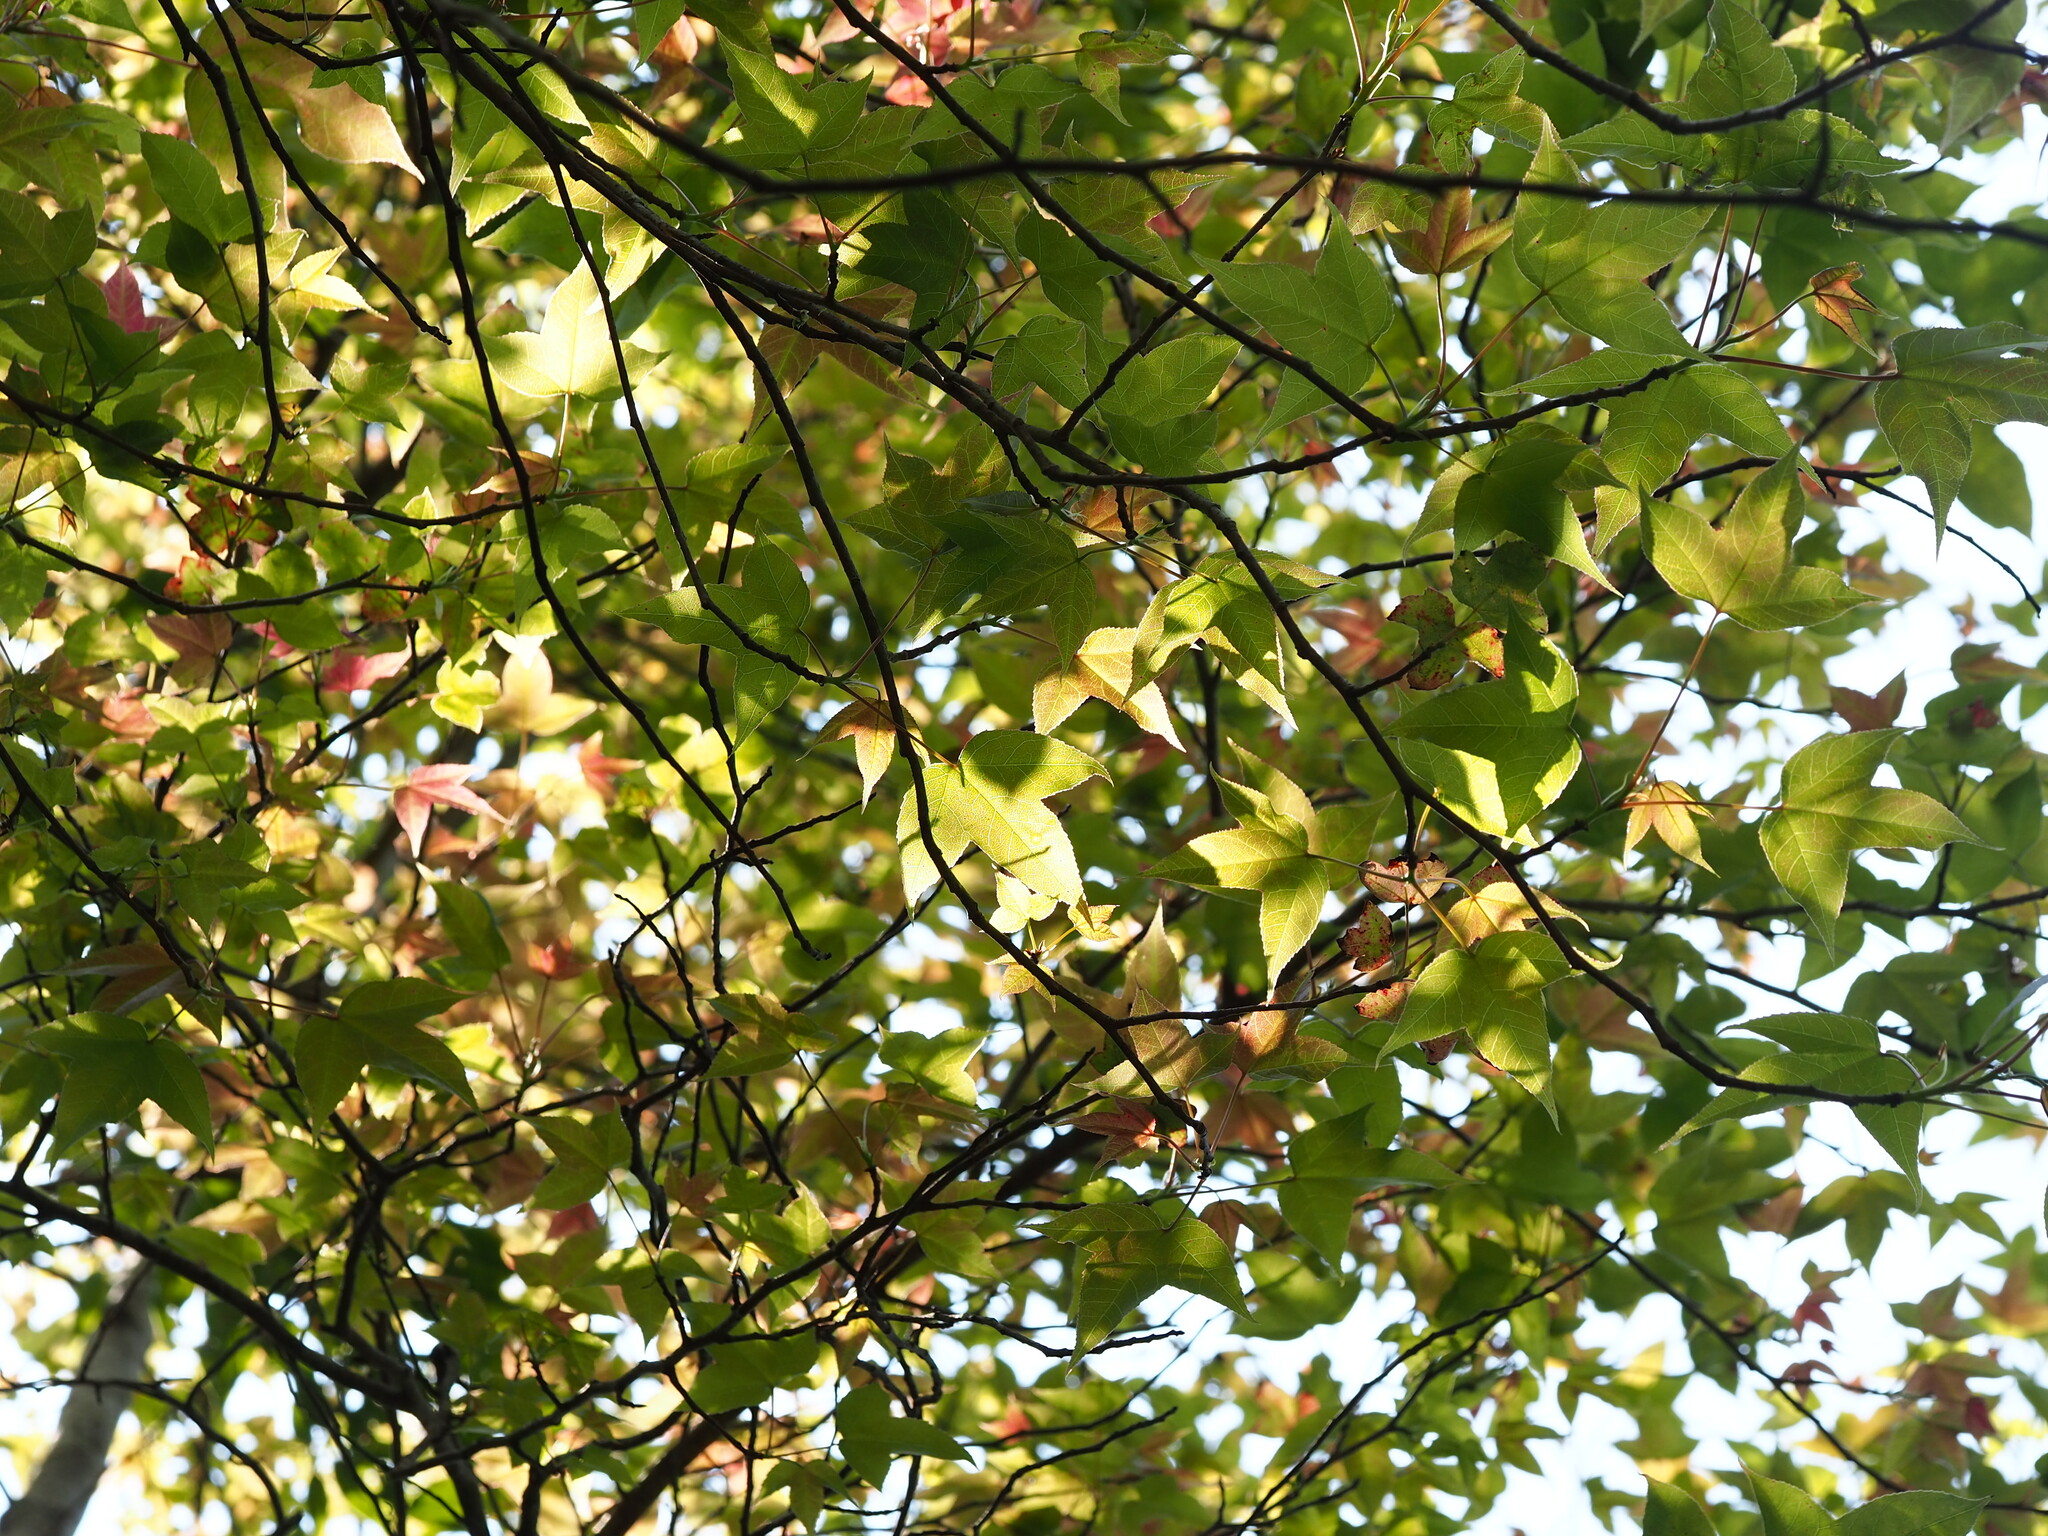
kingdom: Plantae
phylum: Tracheophyta
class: Magnoliopsida
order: Saxifragales
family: Altingiaceae
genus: Liquidambar
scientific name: Liquidambar formosana
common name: Chinese sweet gum
